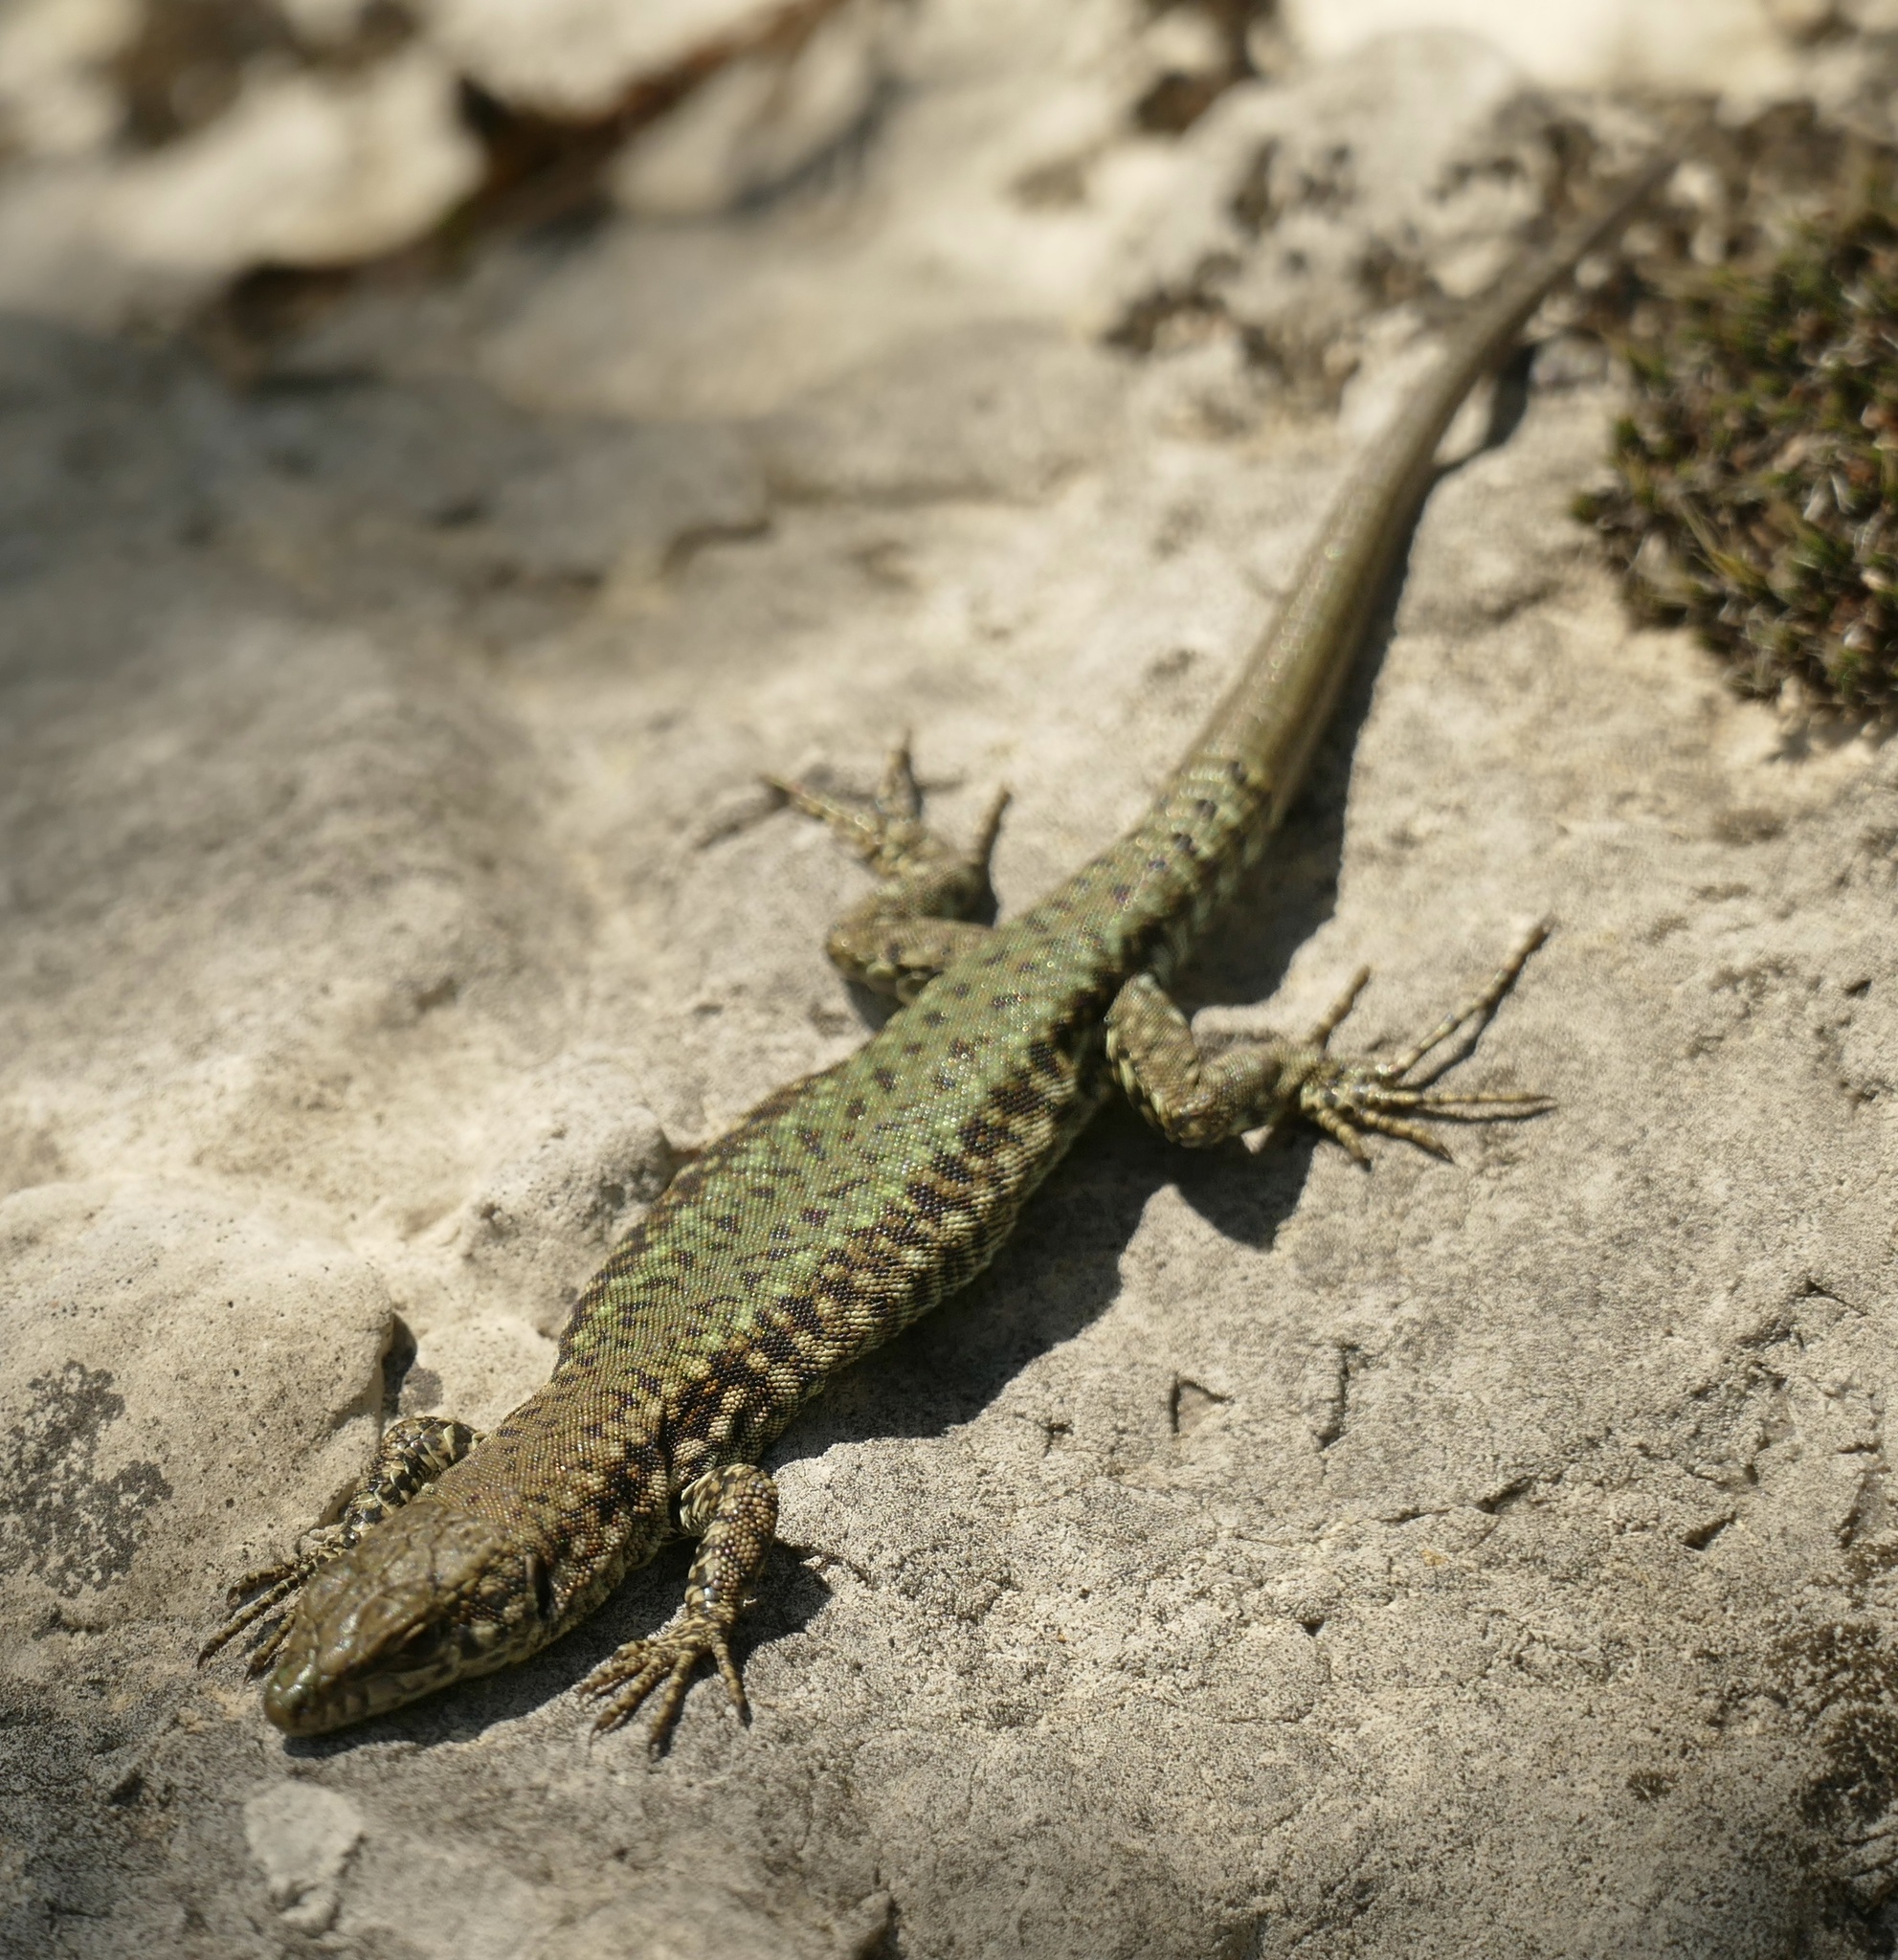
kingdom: Animalia
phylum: Chordata
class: Squamata
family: Lacertidae
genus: Podarcis
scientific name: Podarcis vaucheri
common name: Vaucher's wall lizard
